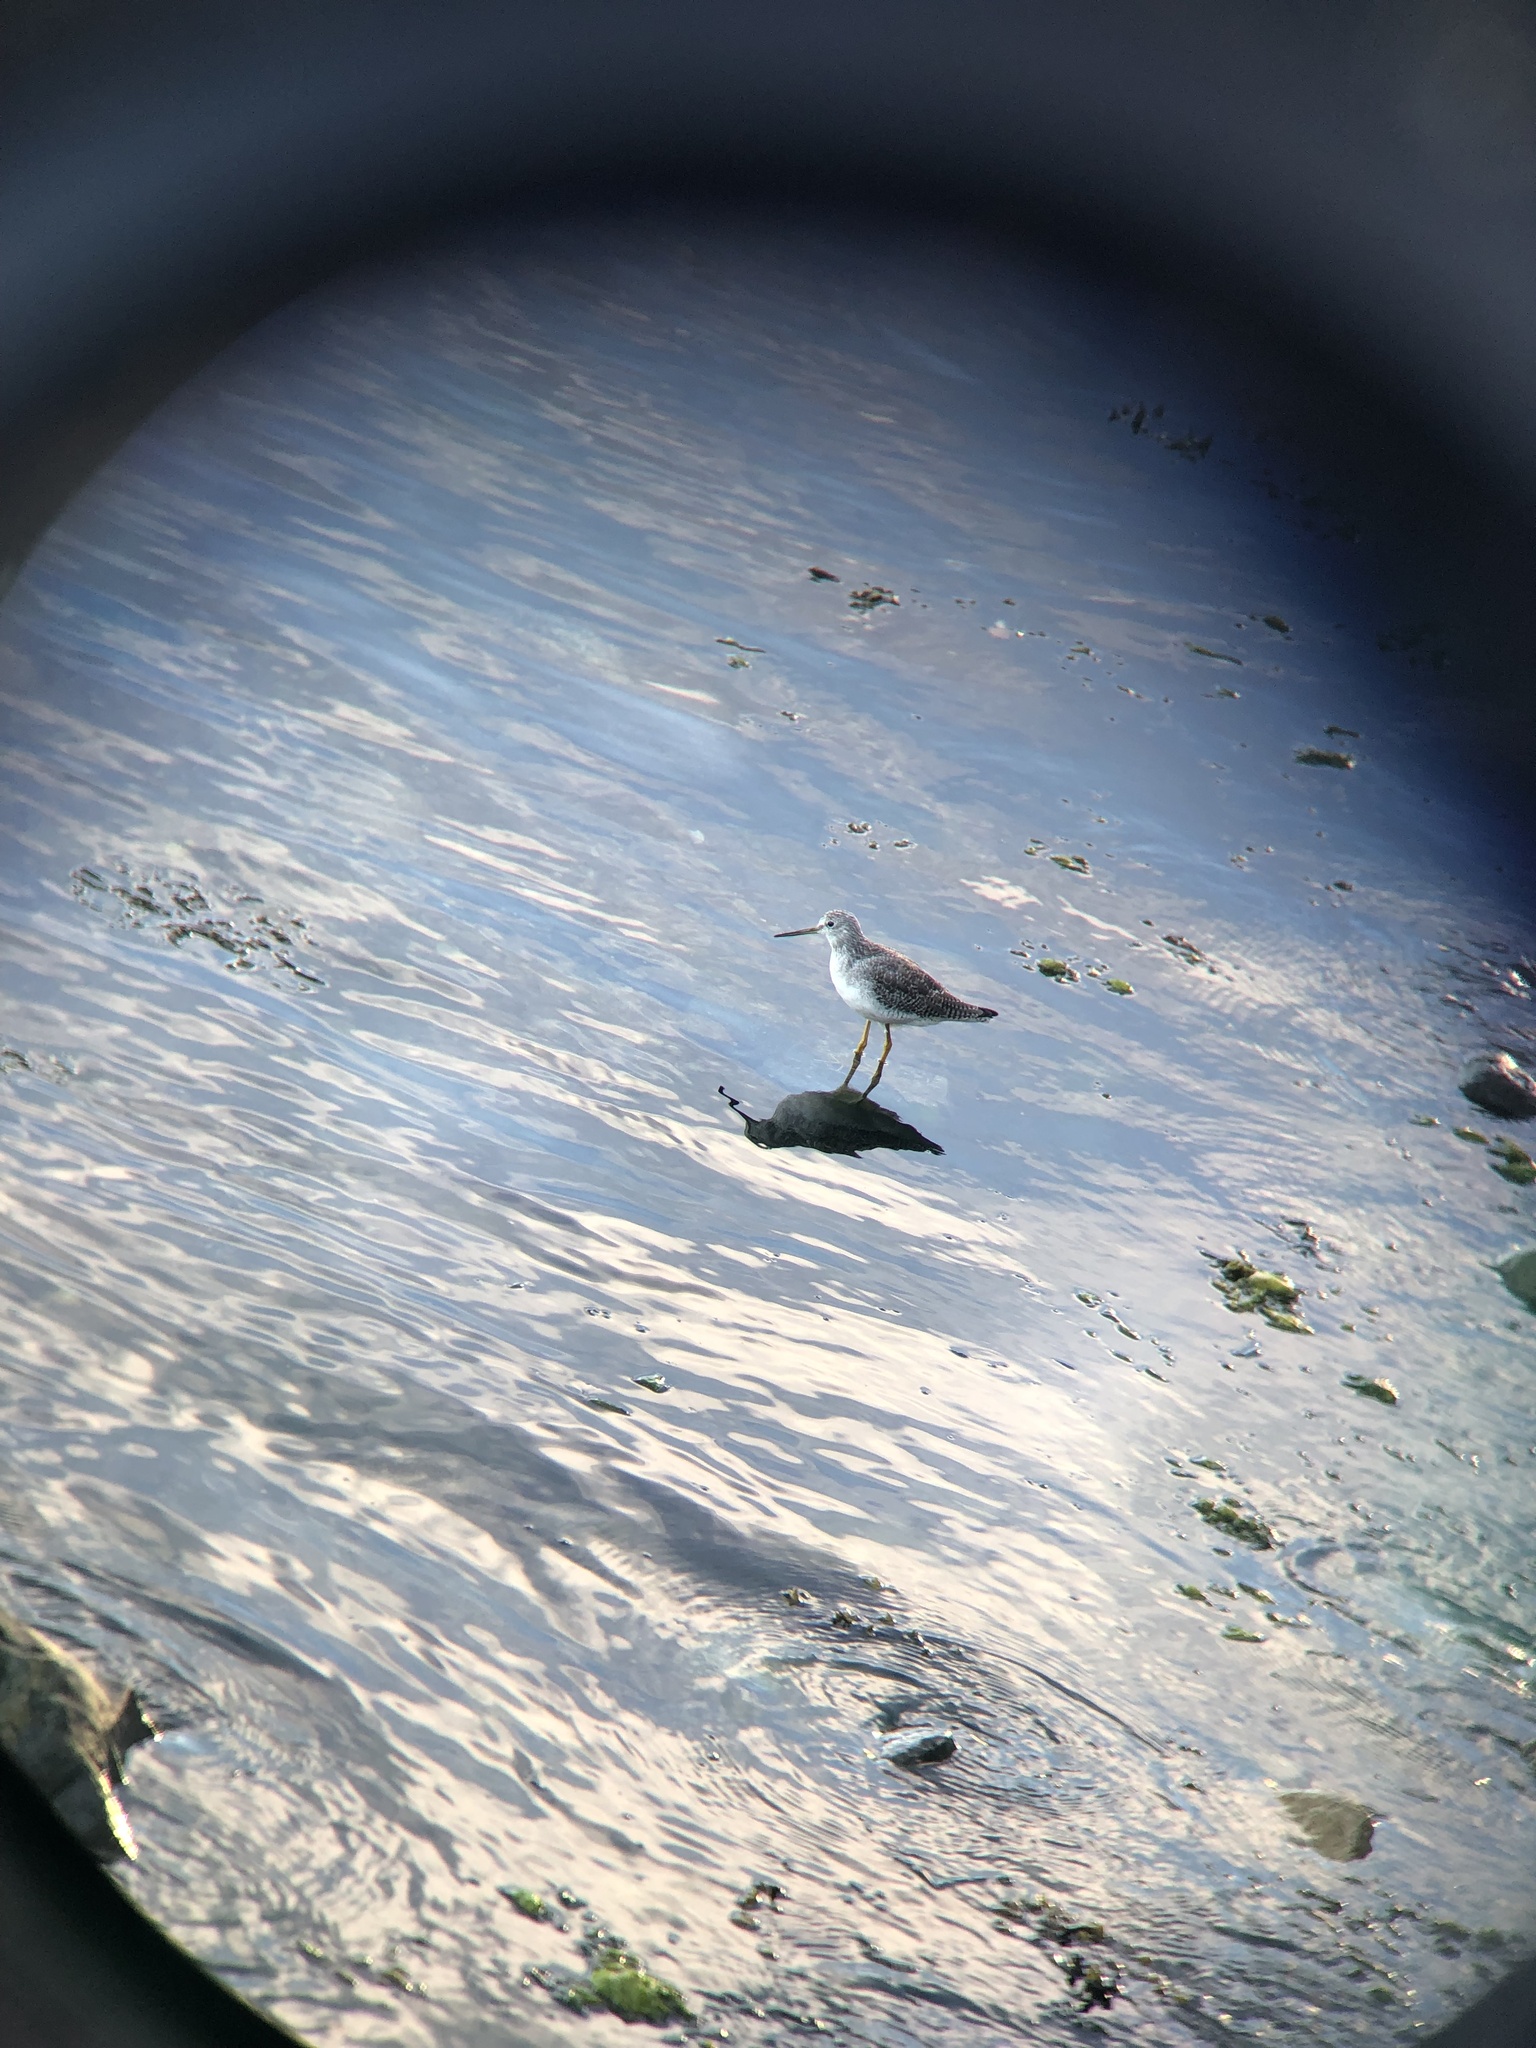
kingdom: Animalia
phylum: Chordata
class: Aves
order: Charadriiformes
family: Scolopacidae
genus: Tringa
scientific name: Tringa melanoleuca
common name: Greater yellowlegs
